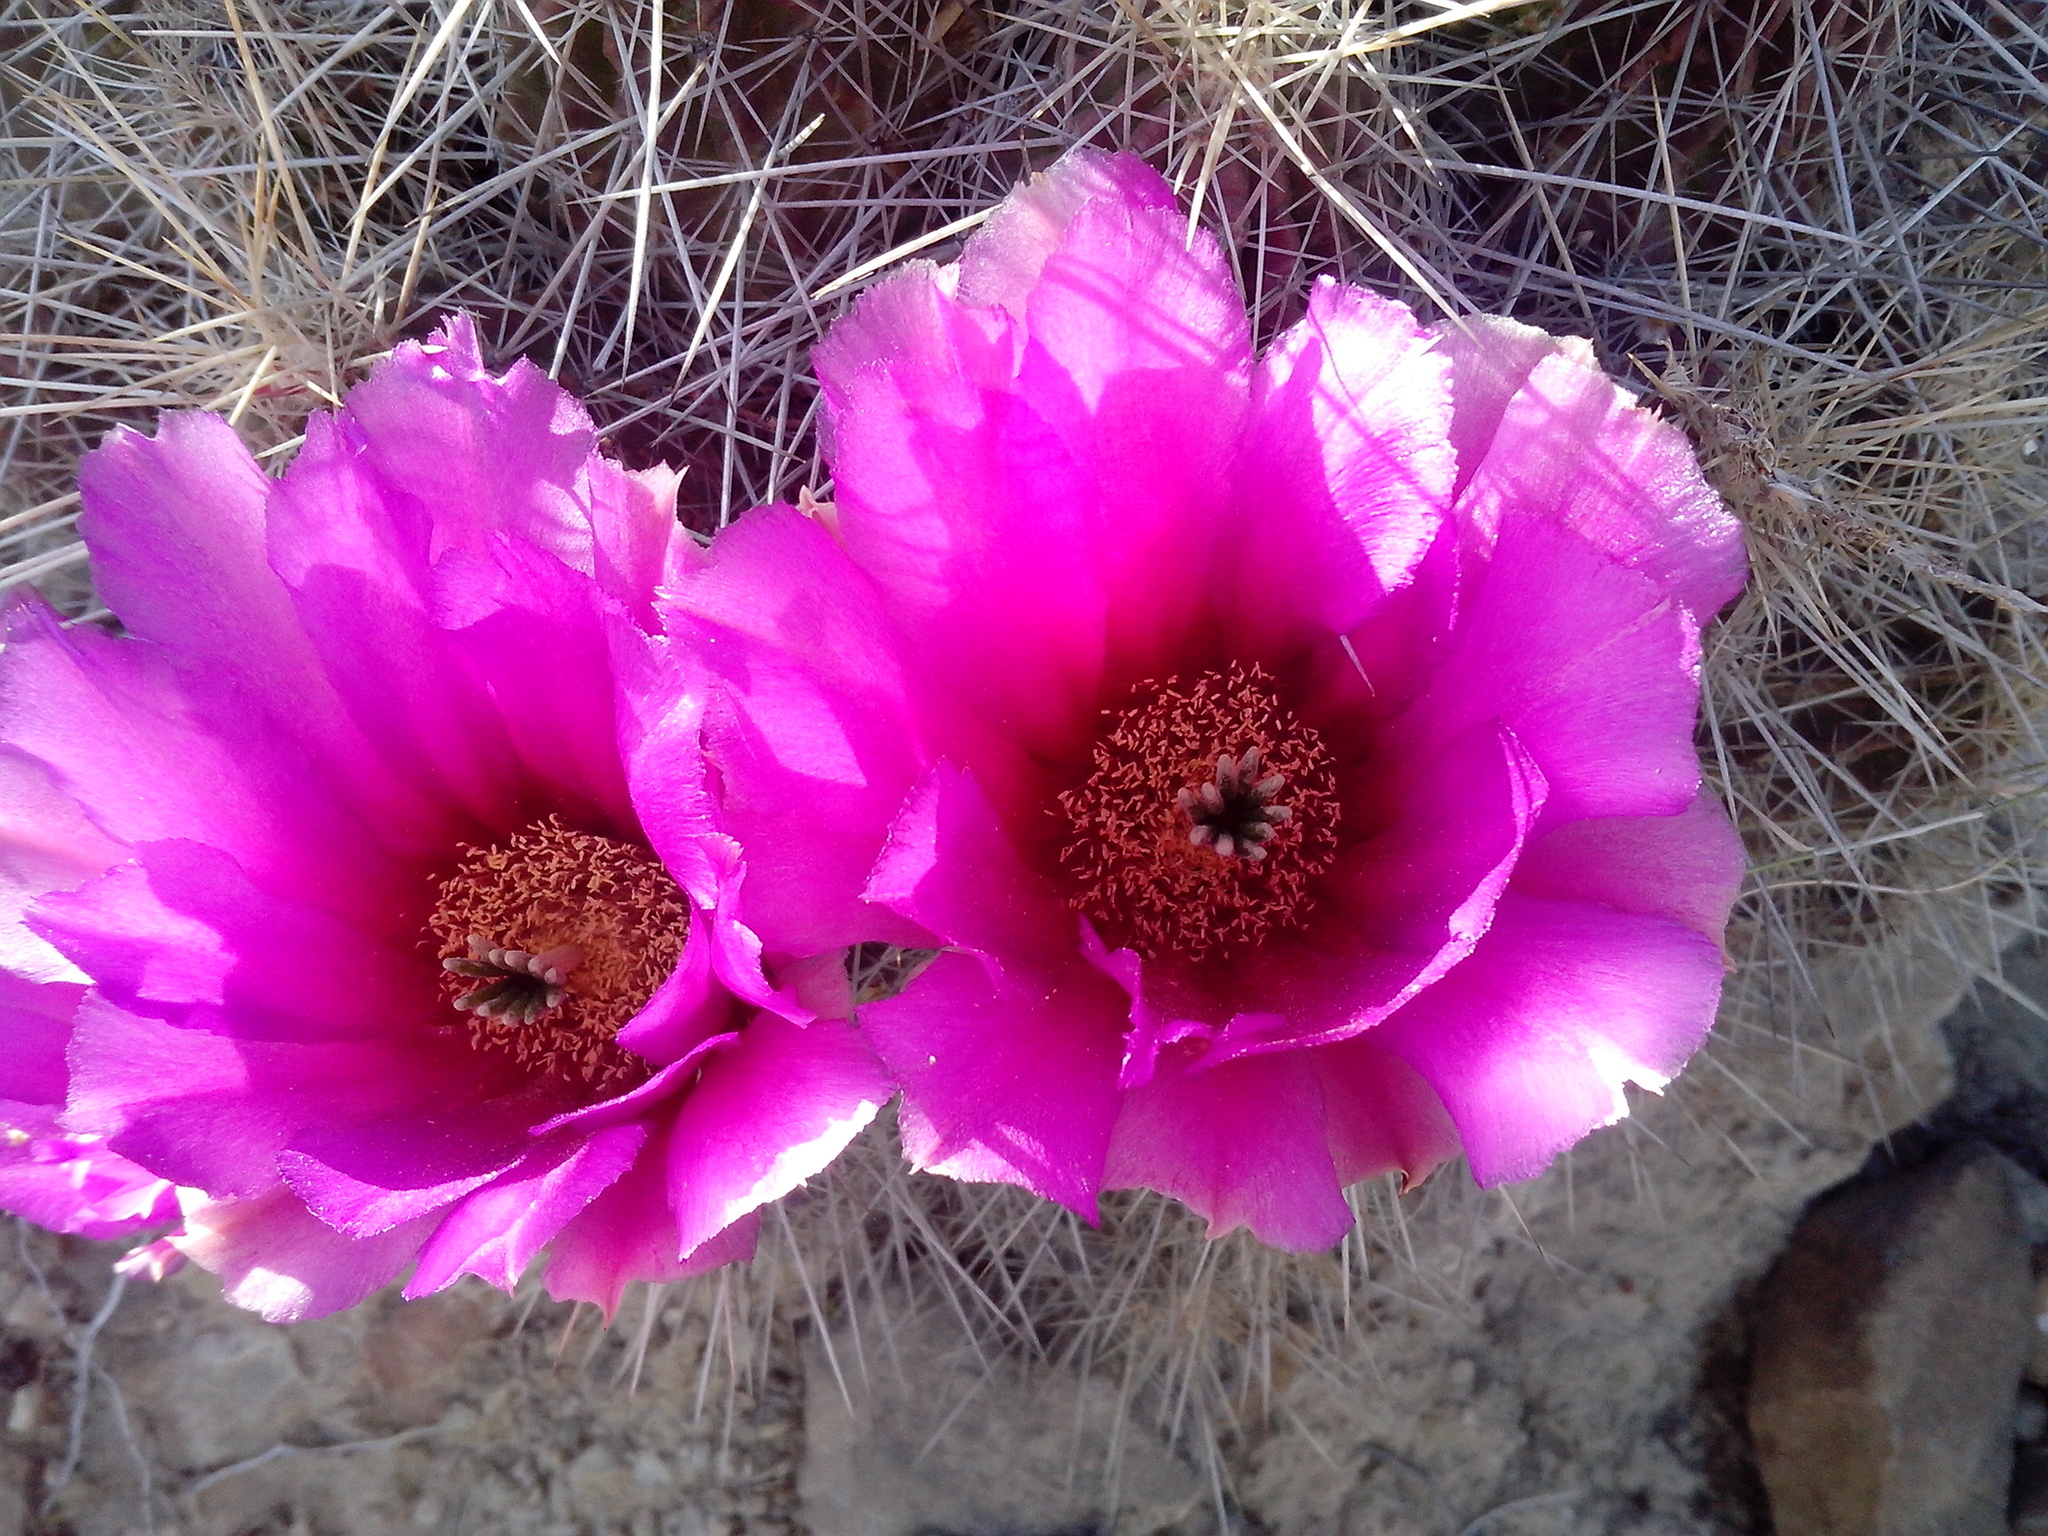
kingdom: Plantae
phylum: Tracheophyta
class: Magnoliopsida
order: Caryophyllales
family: Cactaceae
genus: Echinocereus
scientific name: Echinocereus stramineus
